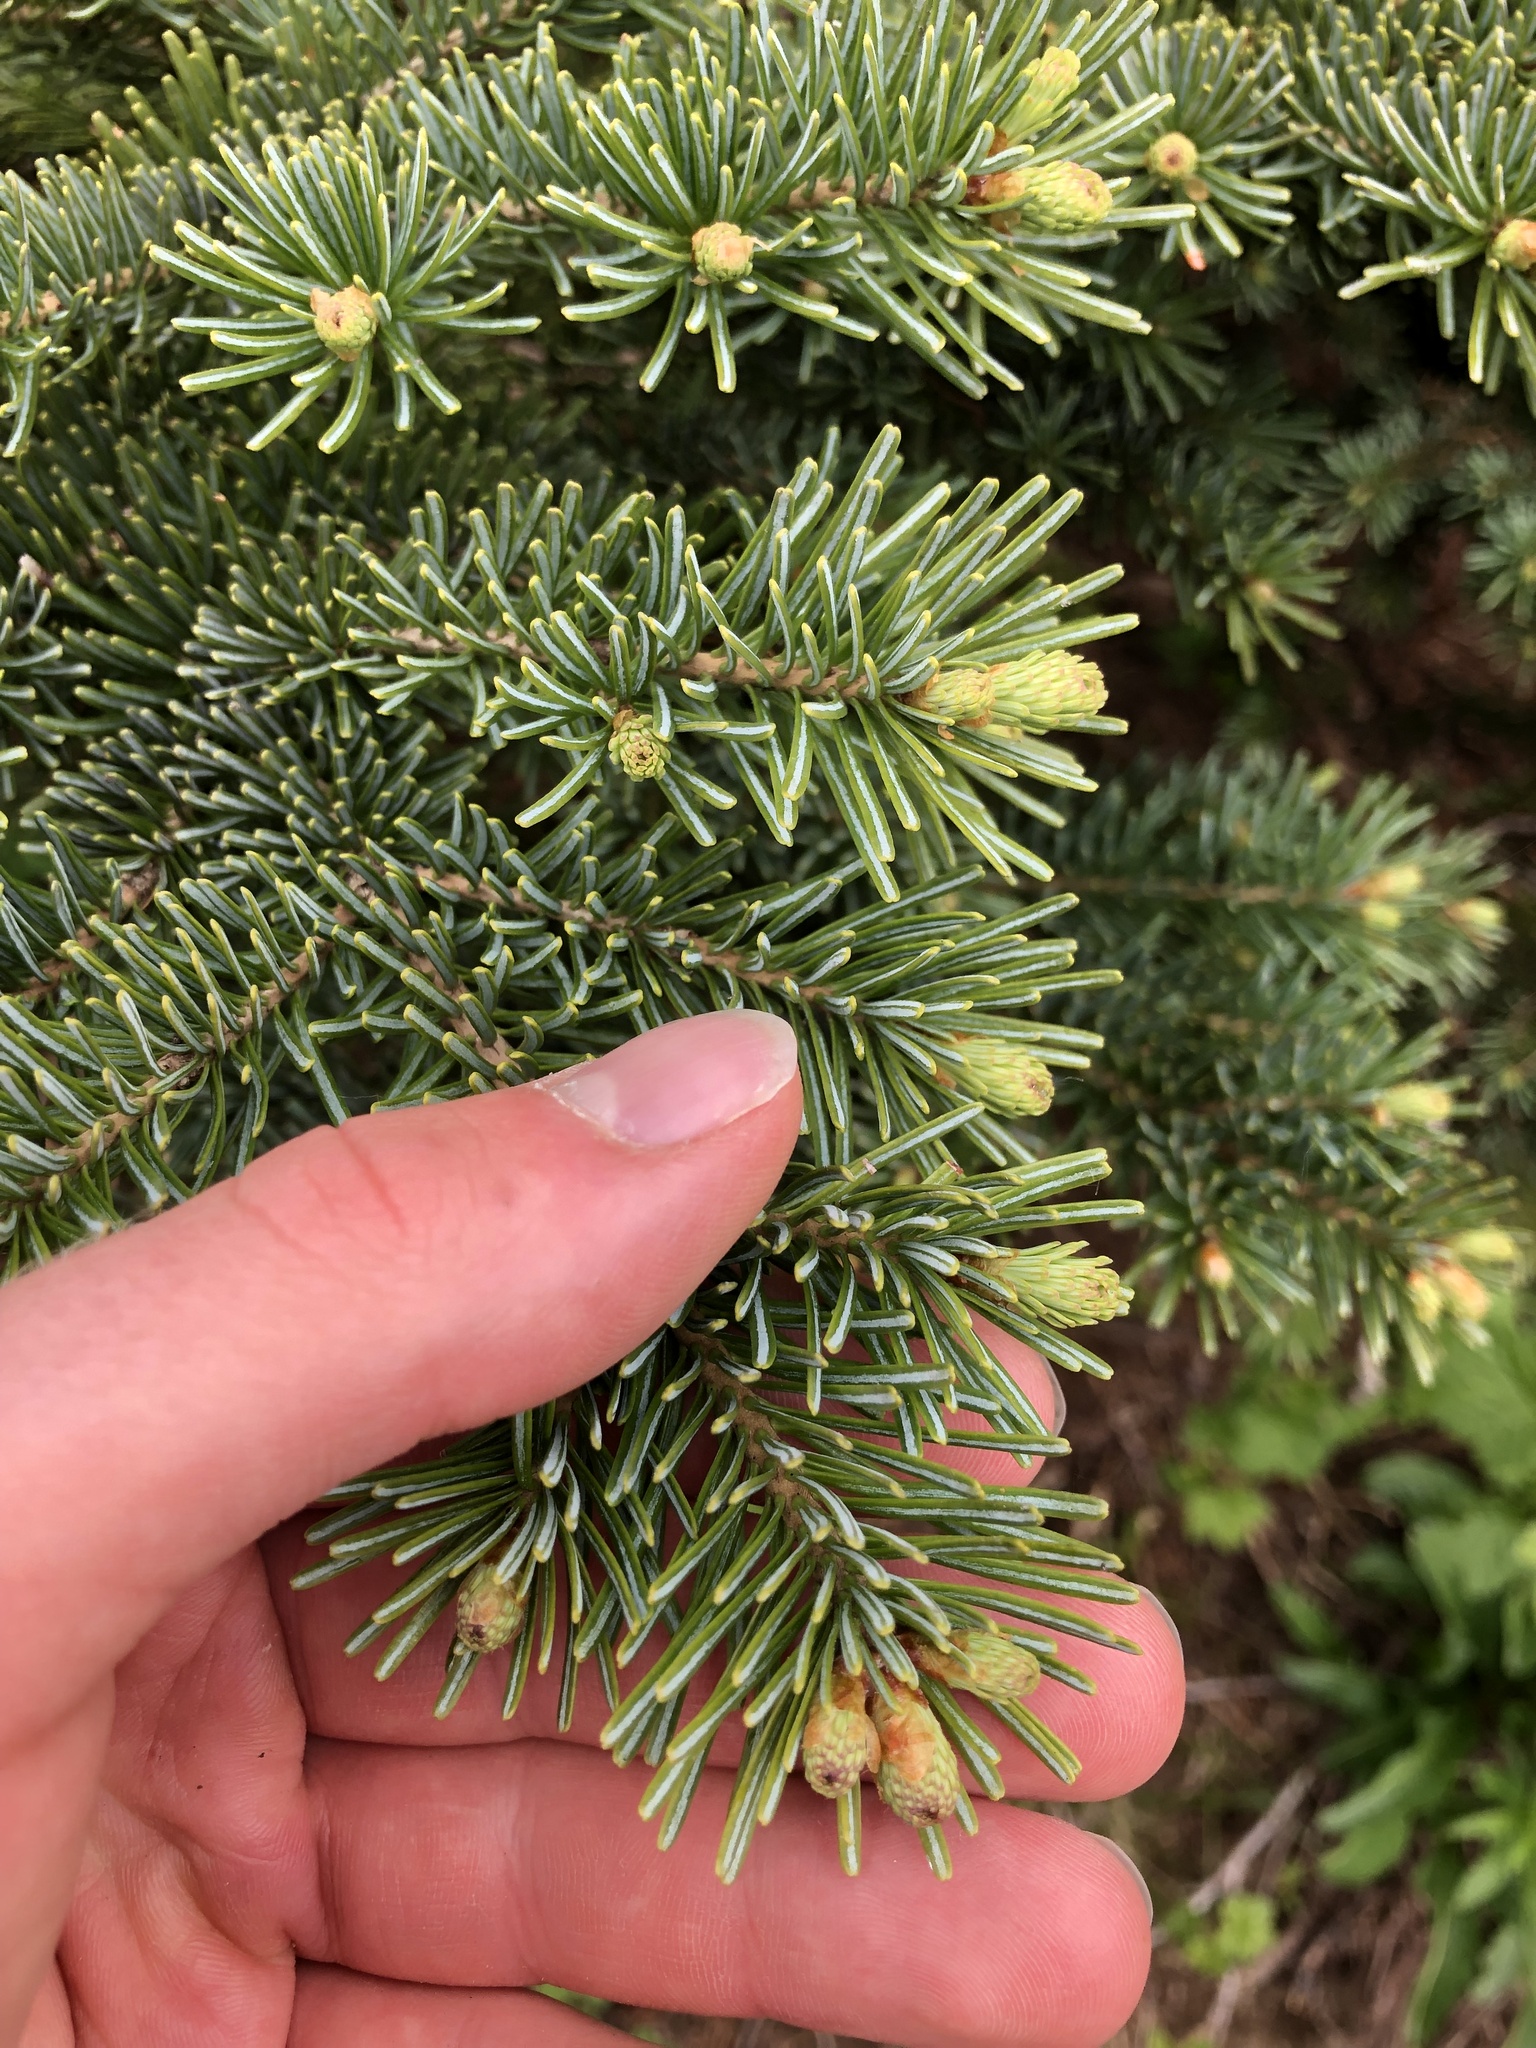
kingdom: Plantae
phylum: Tracheophyta
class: Pinopsida
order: Pinales
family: Pinaceae
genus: Abies
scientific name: Abies lasiocarpa
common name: Subalpine fir
